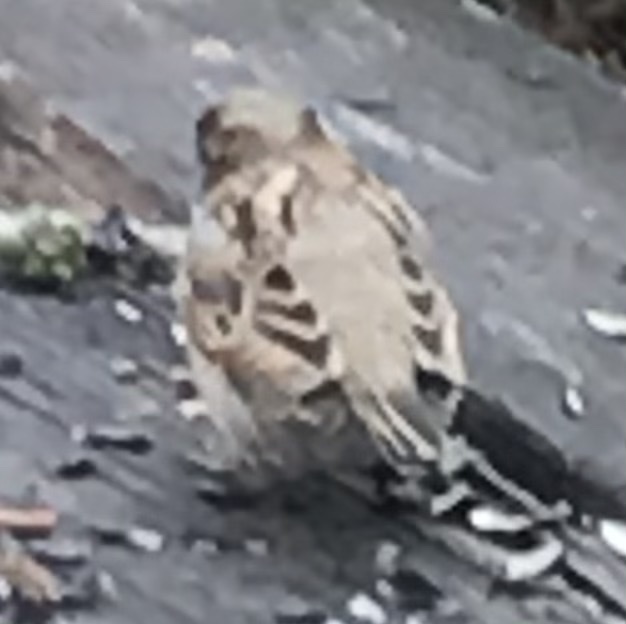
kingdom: Animalia
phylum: Chordata
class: Aves
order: Passeriformes
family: Passeridae
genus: Passer
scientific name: Passer domesticus
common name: House sparrow
